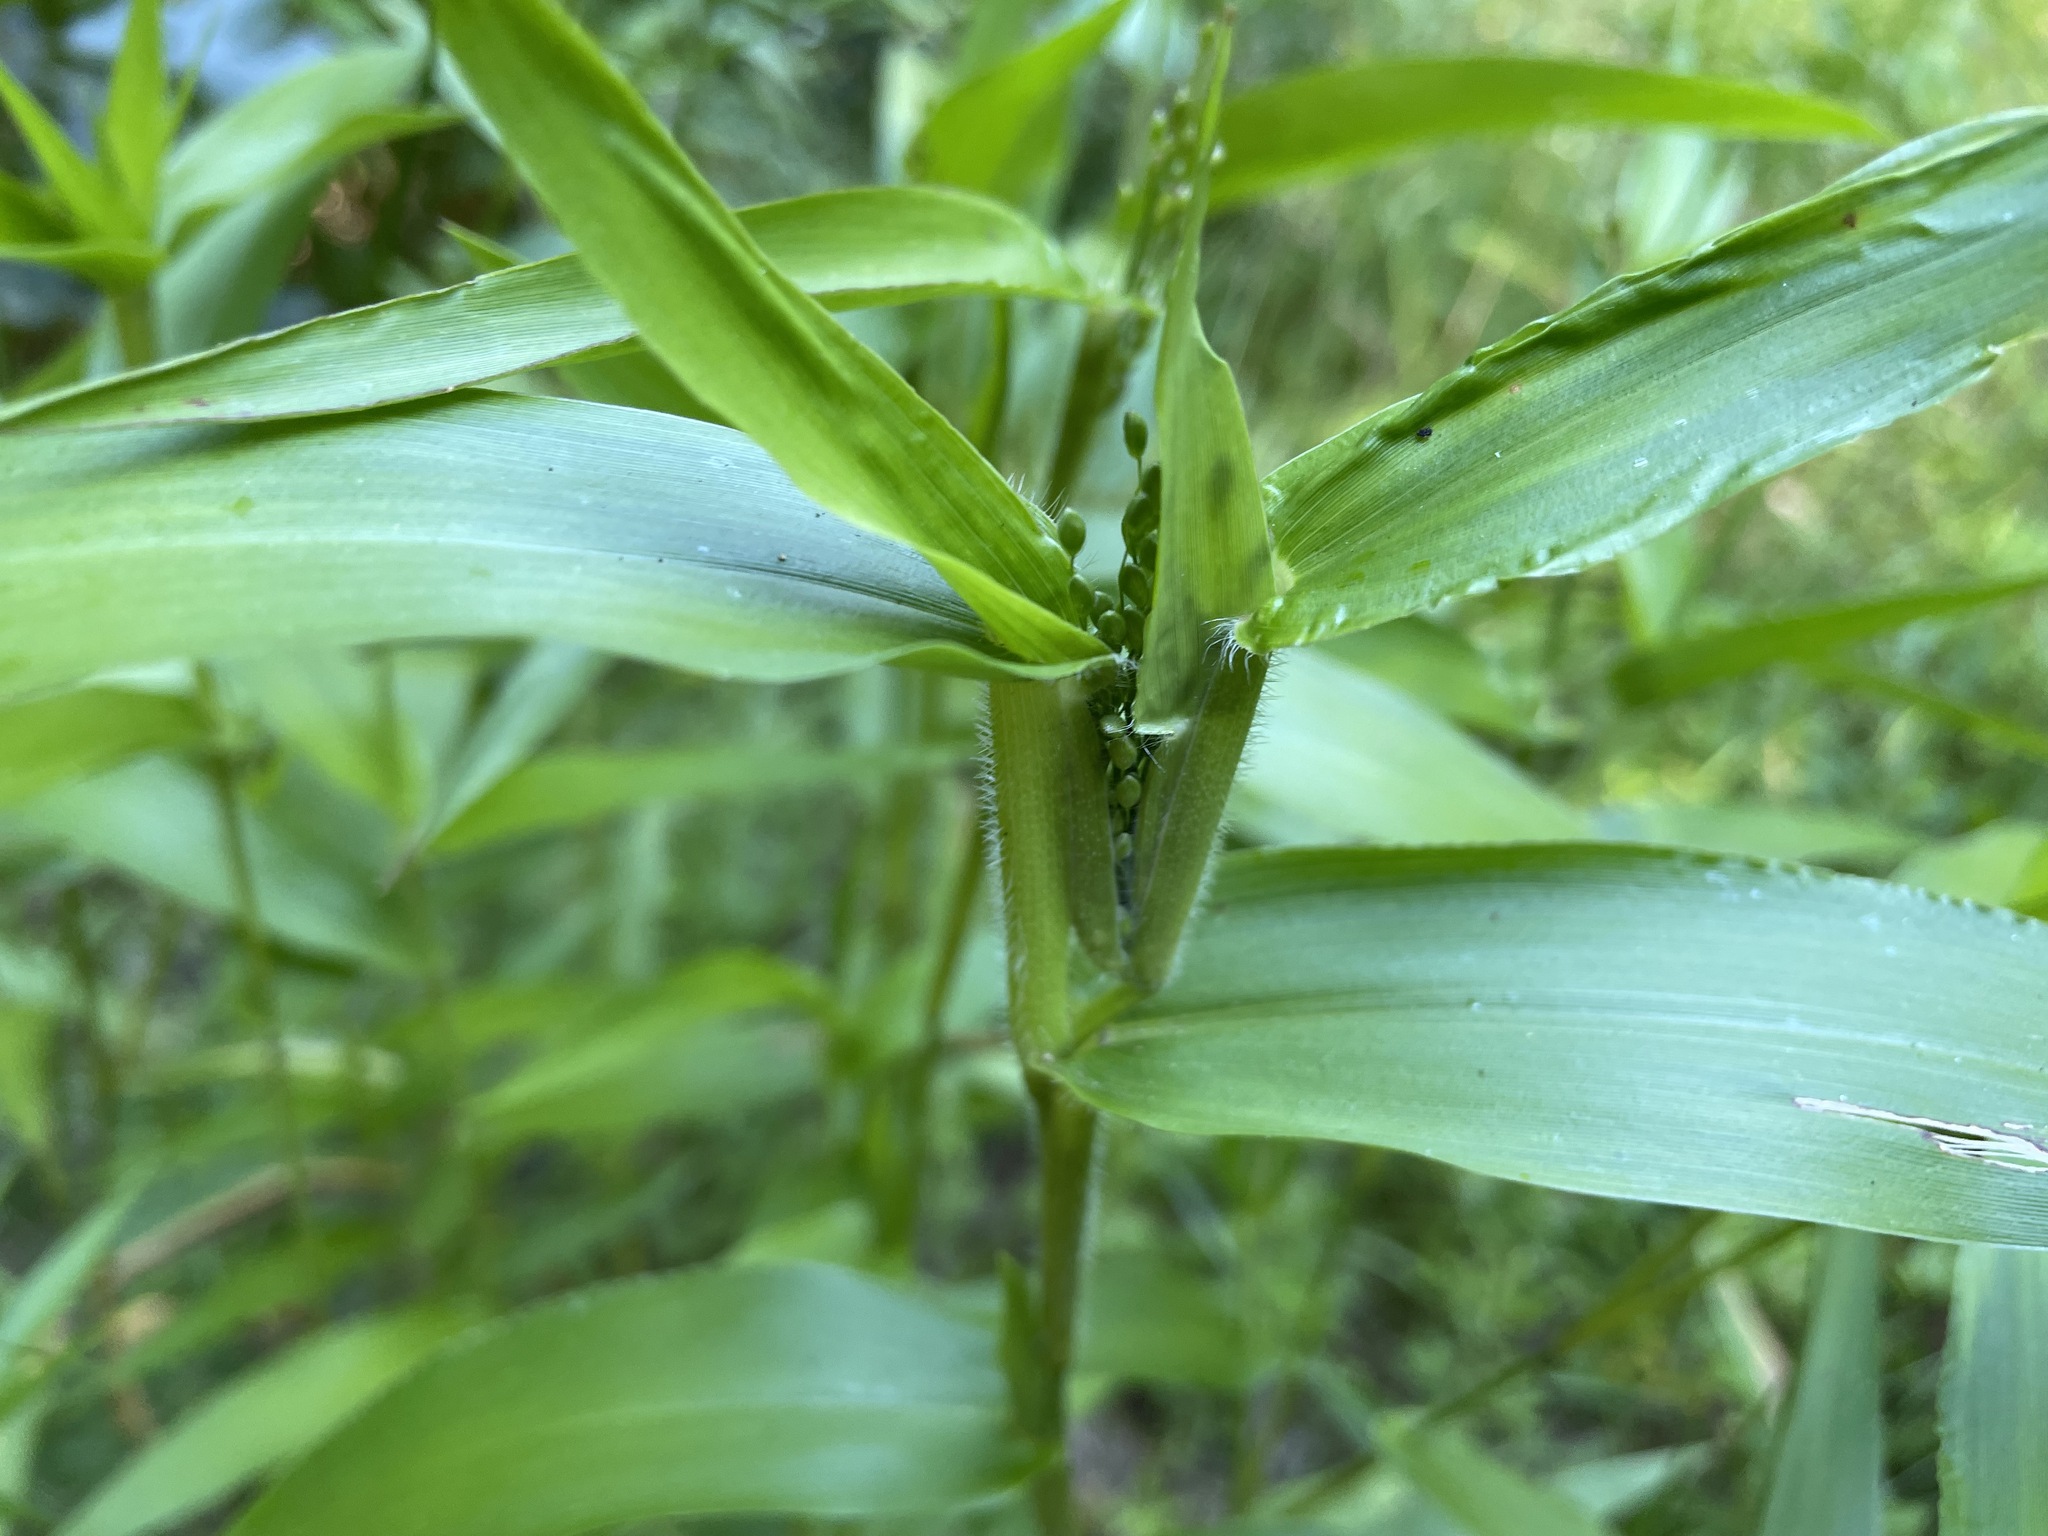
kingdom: Plantae
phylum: Tracheophyta
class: Liliopsida
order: Poales
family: Poaceae
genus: Dichanthelium
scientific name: Dichanthelium clandestinum
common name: Deer-tongue grass
